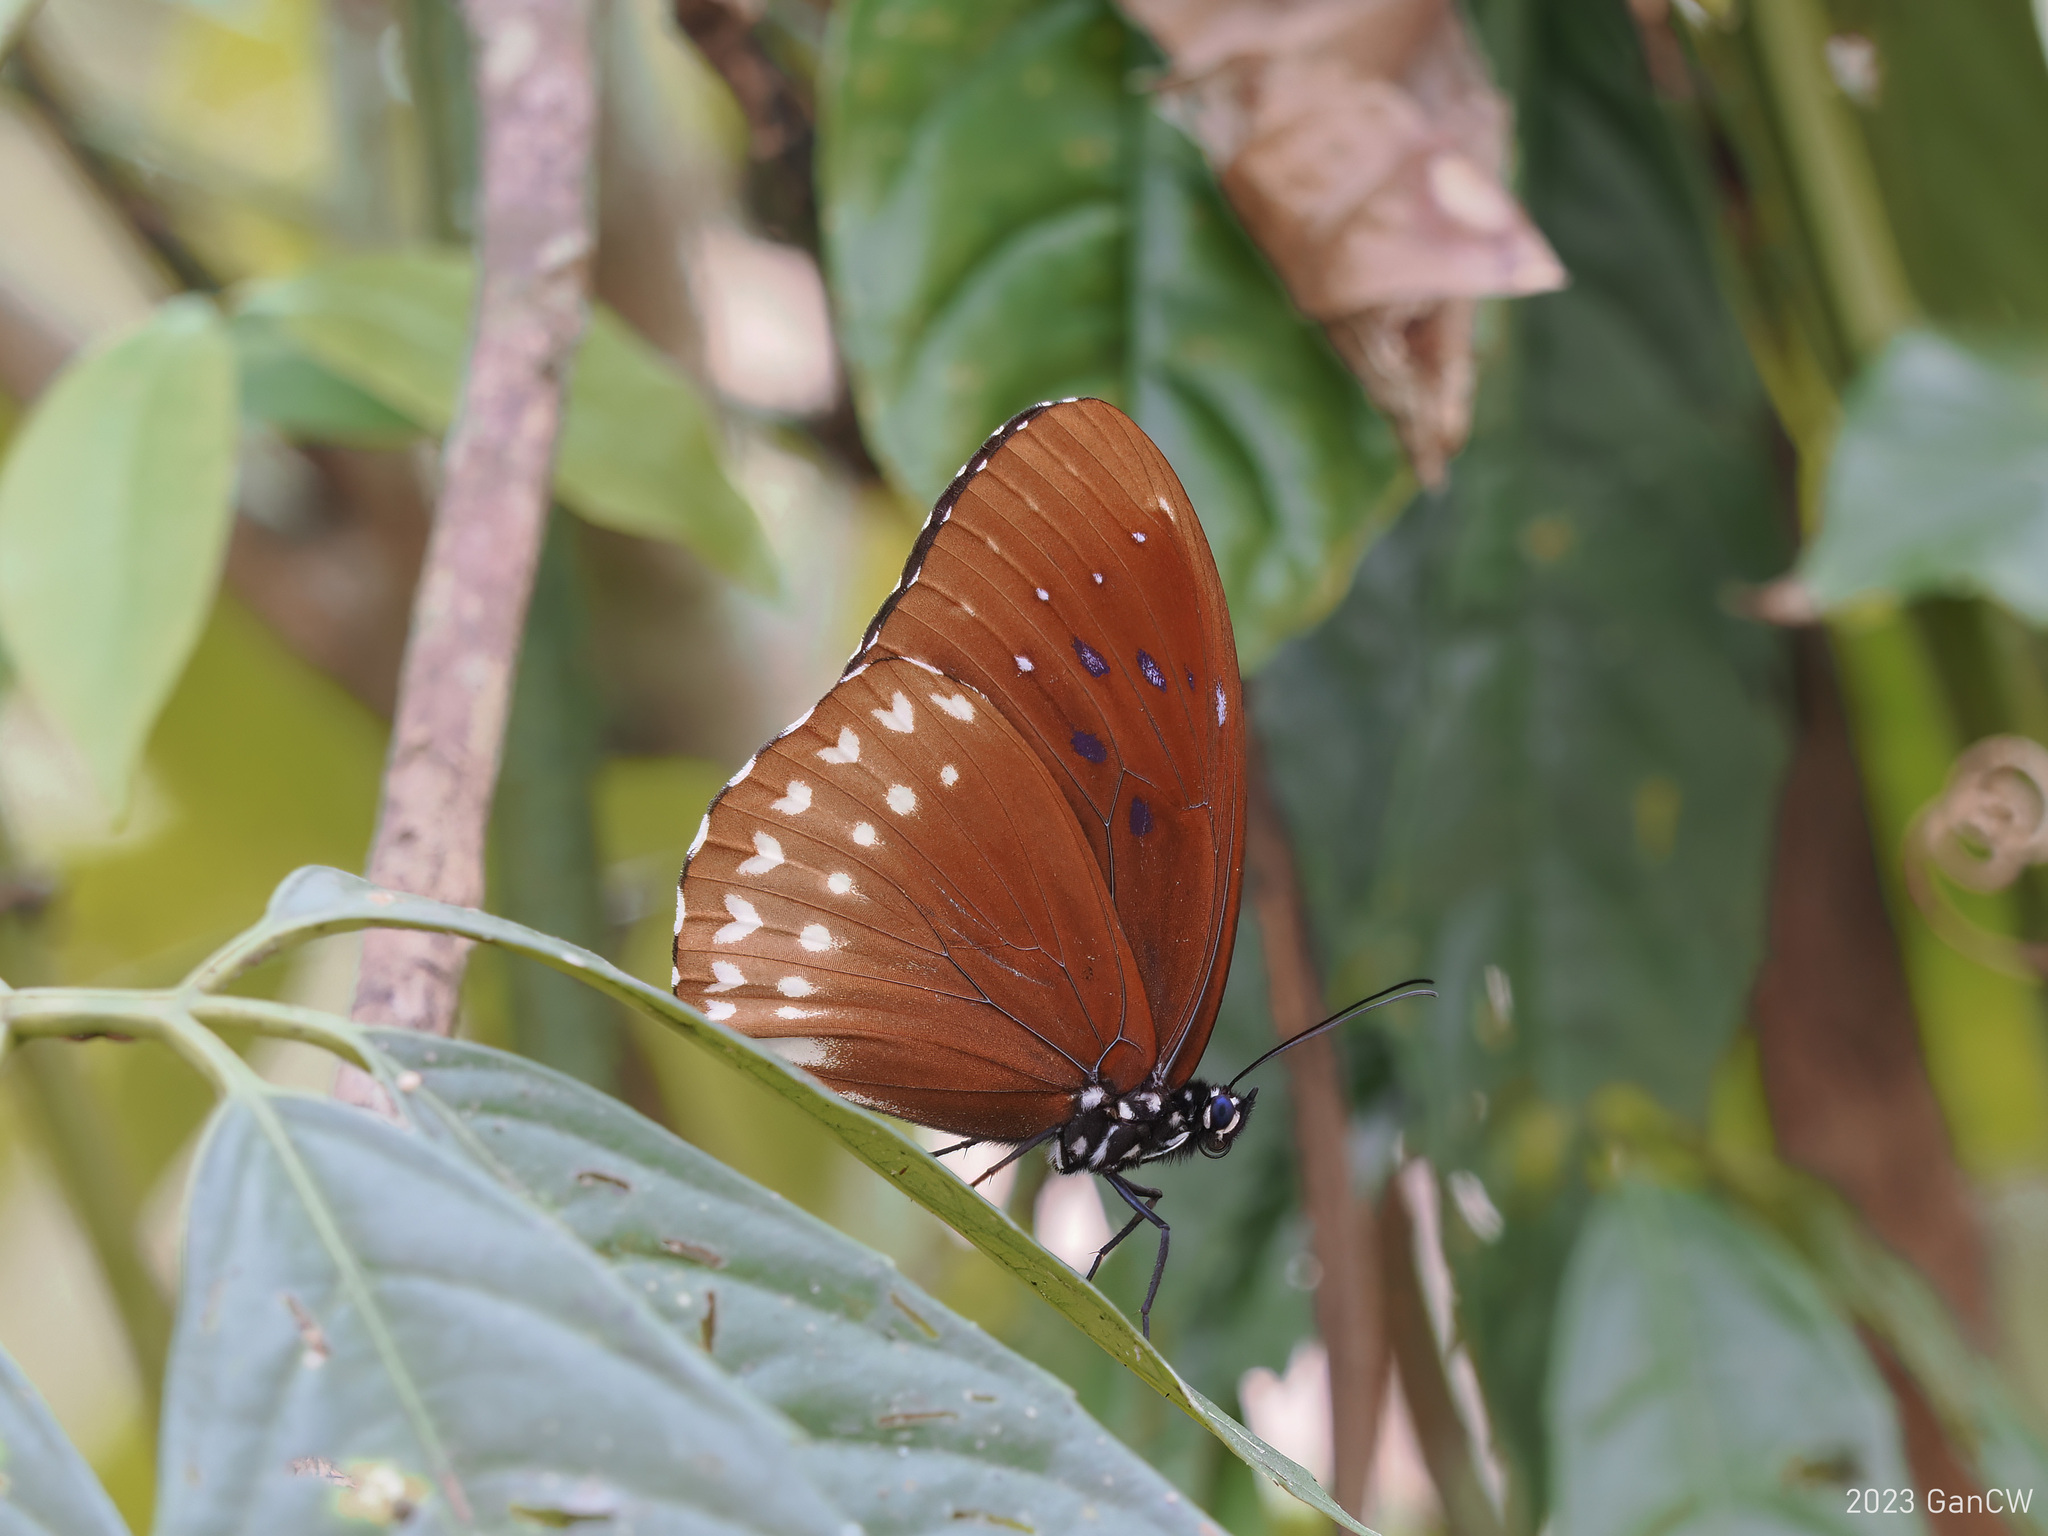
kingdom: Animalia
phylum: Arthropoda
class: Insecta
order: Lepidoptera
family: Nymphalidae
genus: Penthema
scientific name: Penthema darlisa
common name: Three-coloured kaiser
